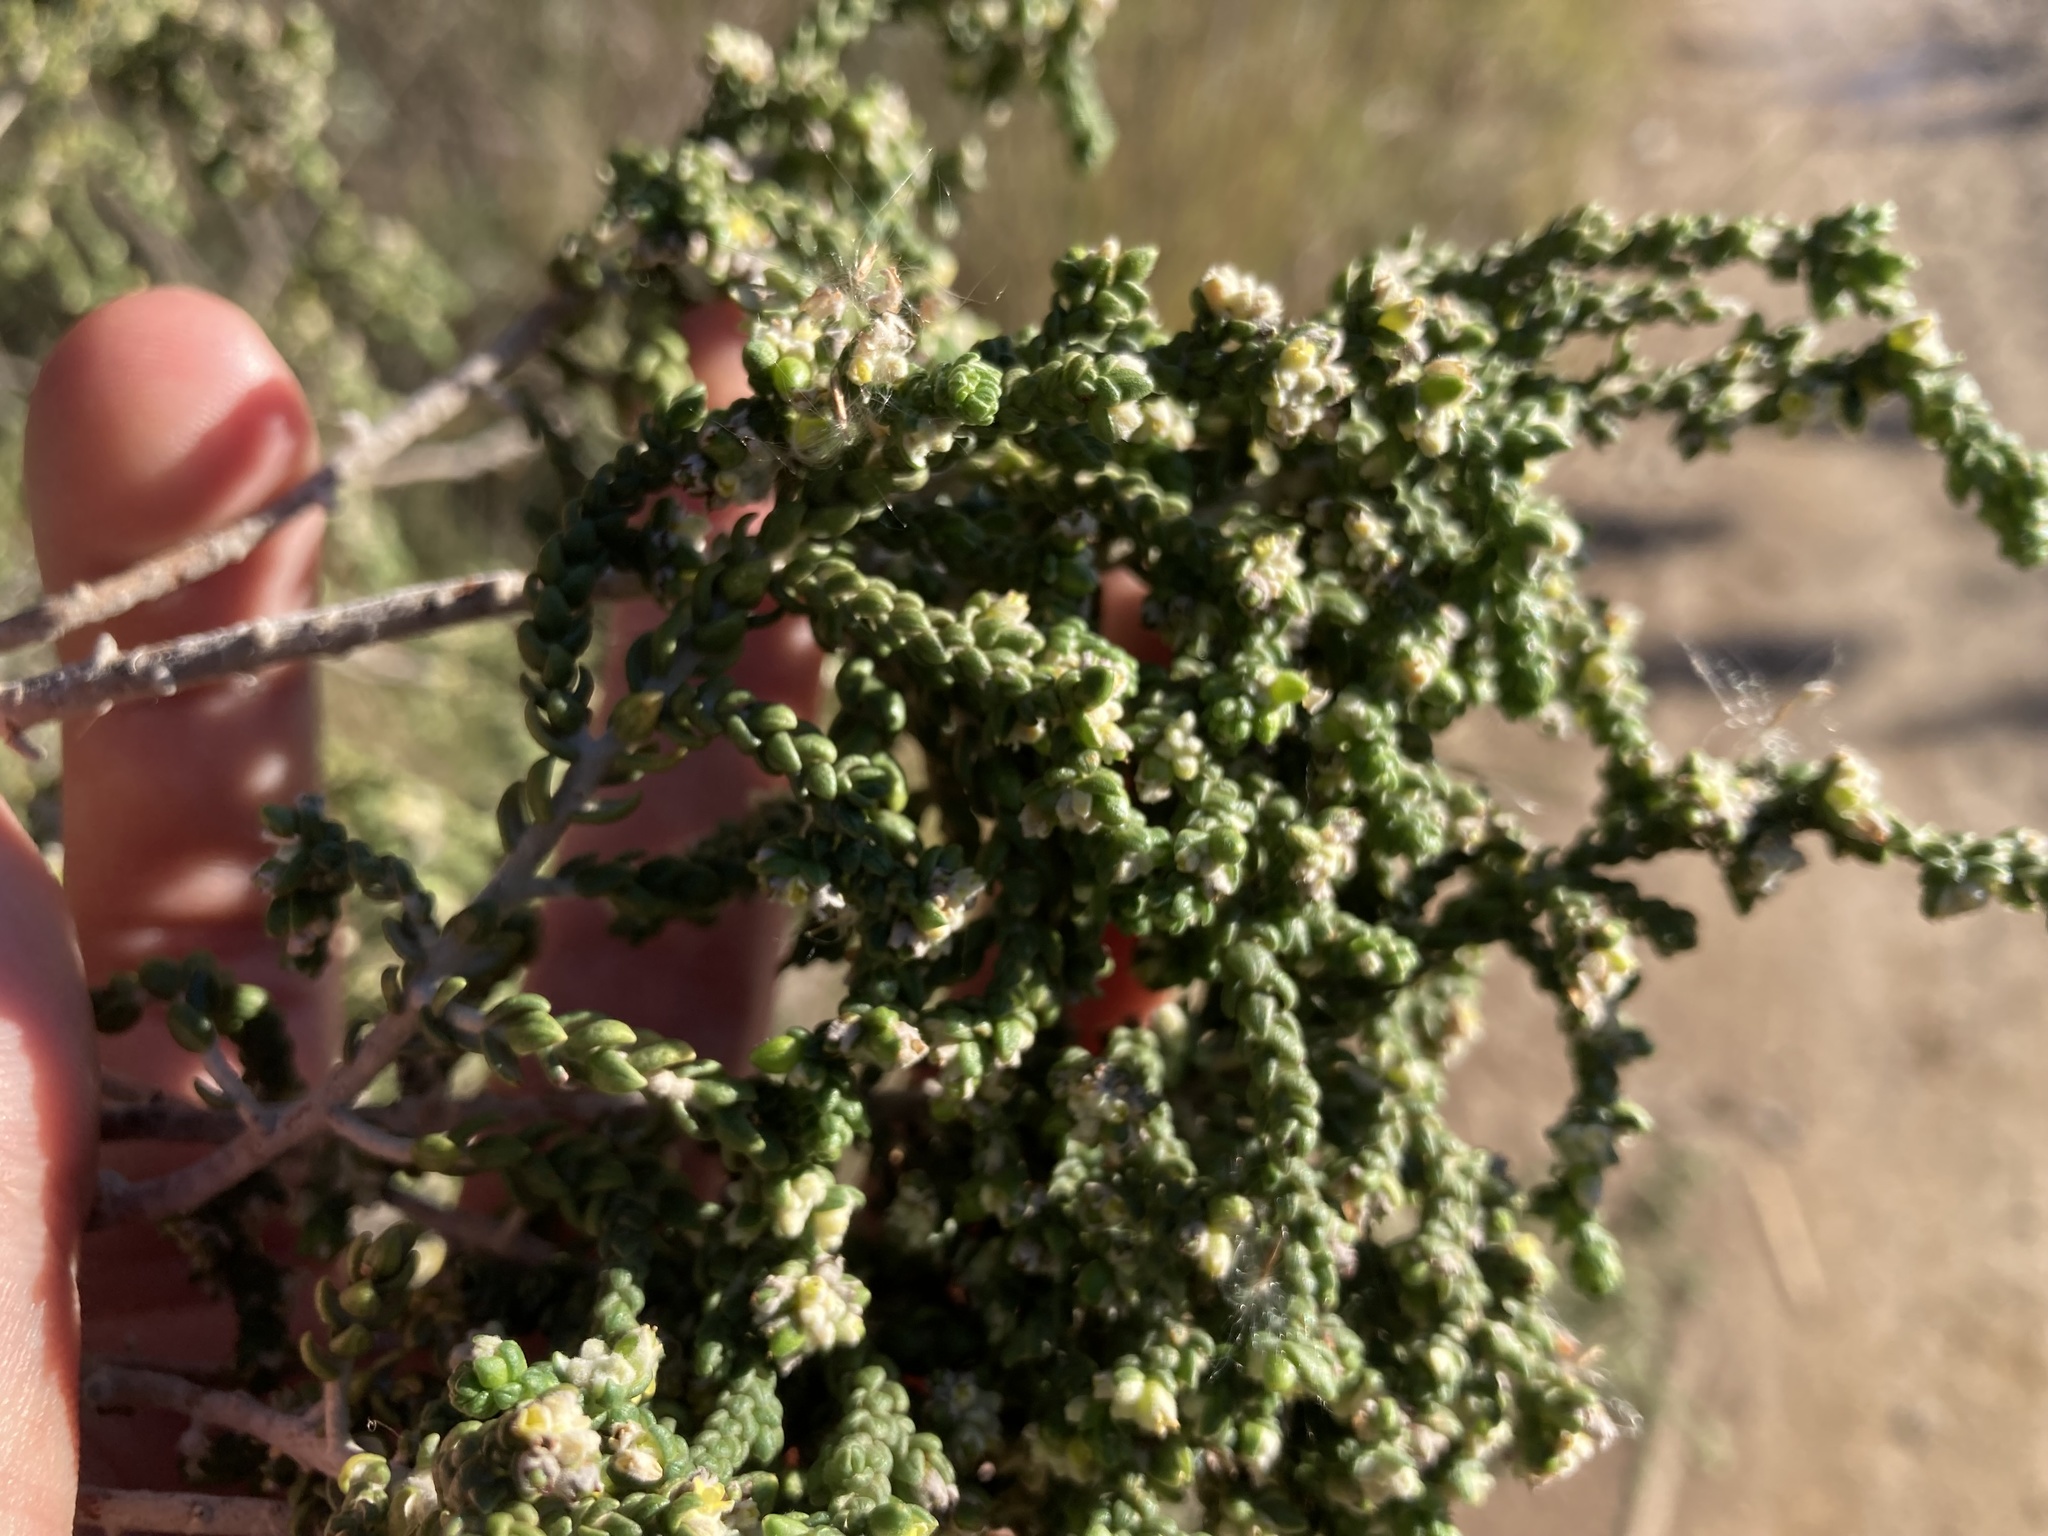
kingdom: Plantae
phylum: Tracheophyta
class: Magnoliopsida
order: Malvales
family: Thymelaeaceae
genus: Thymelaea
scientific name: Thymelaea hirsuta
